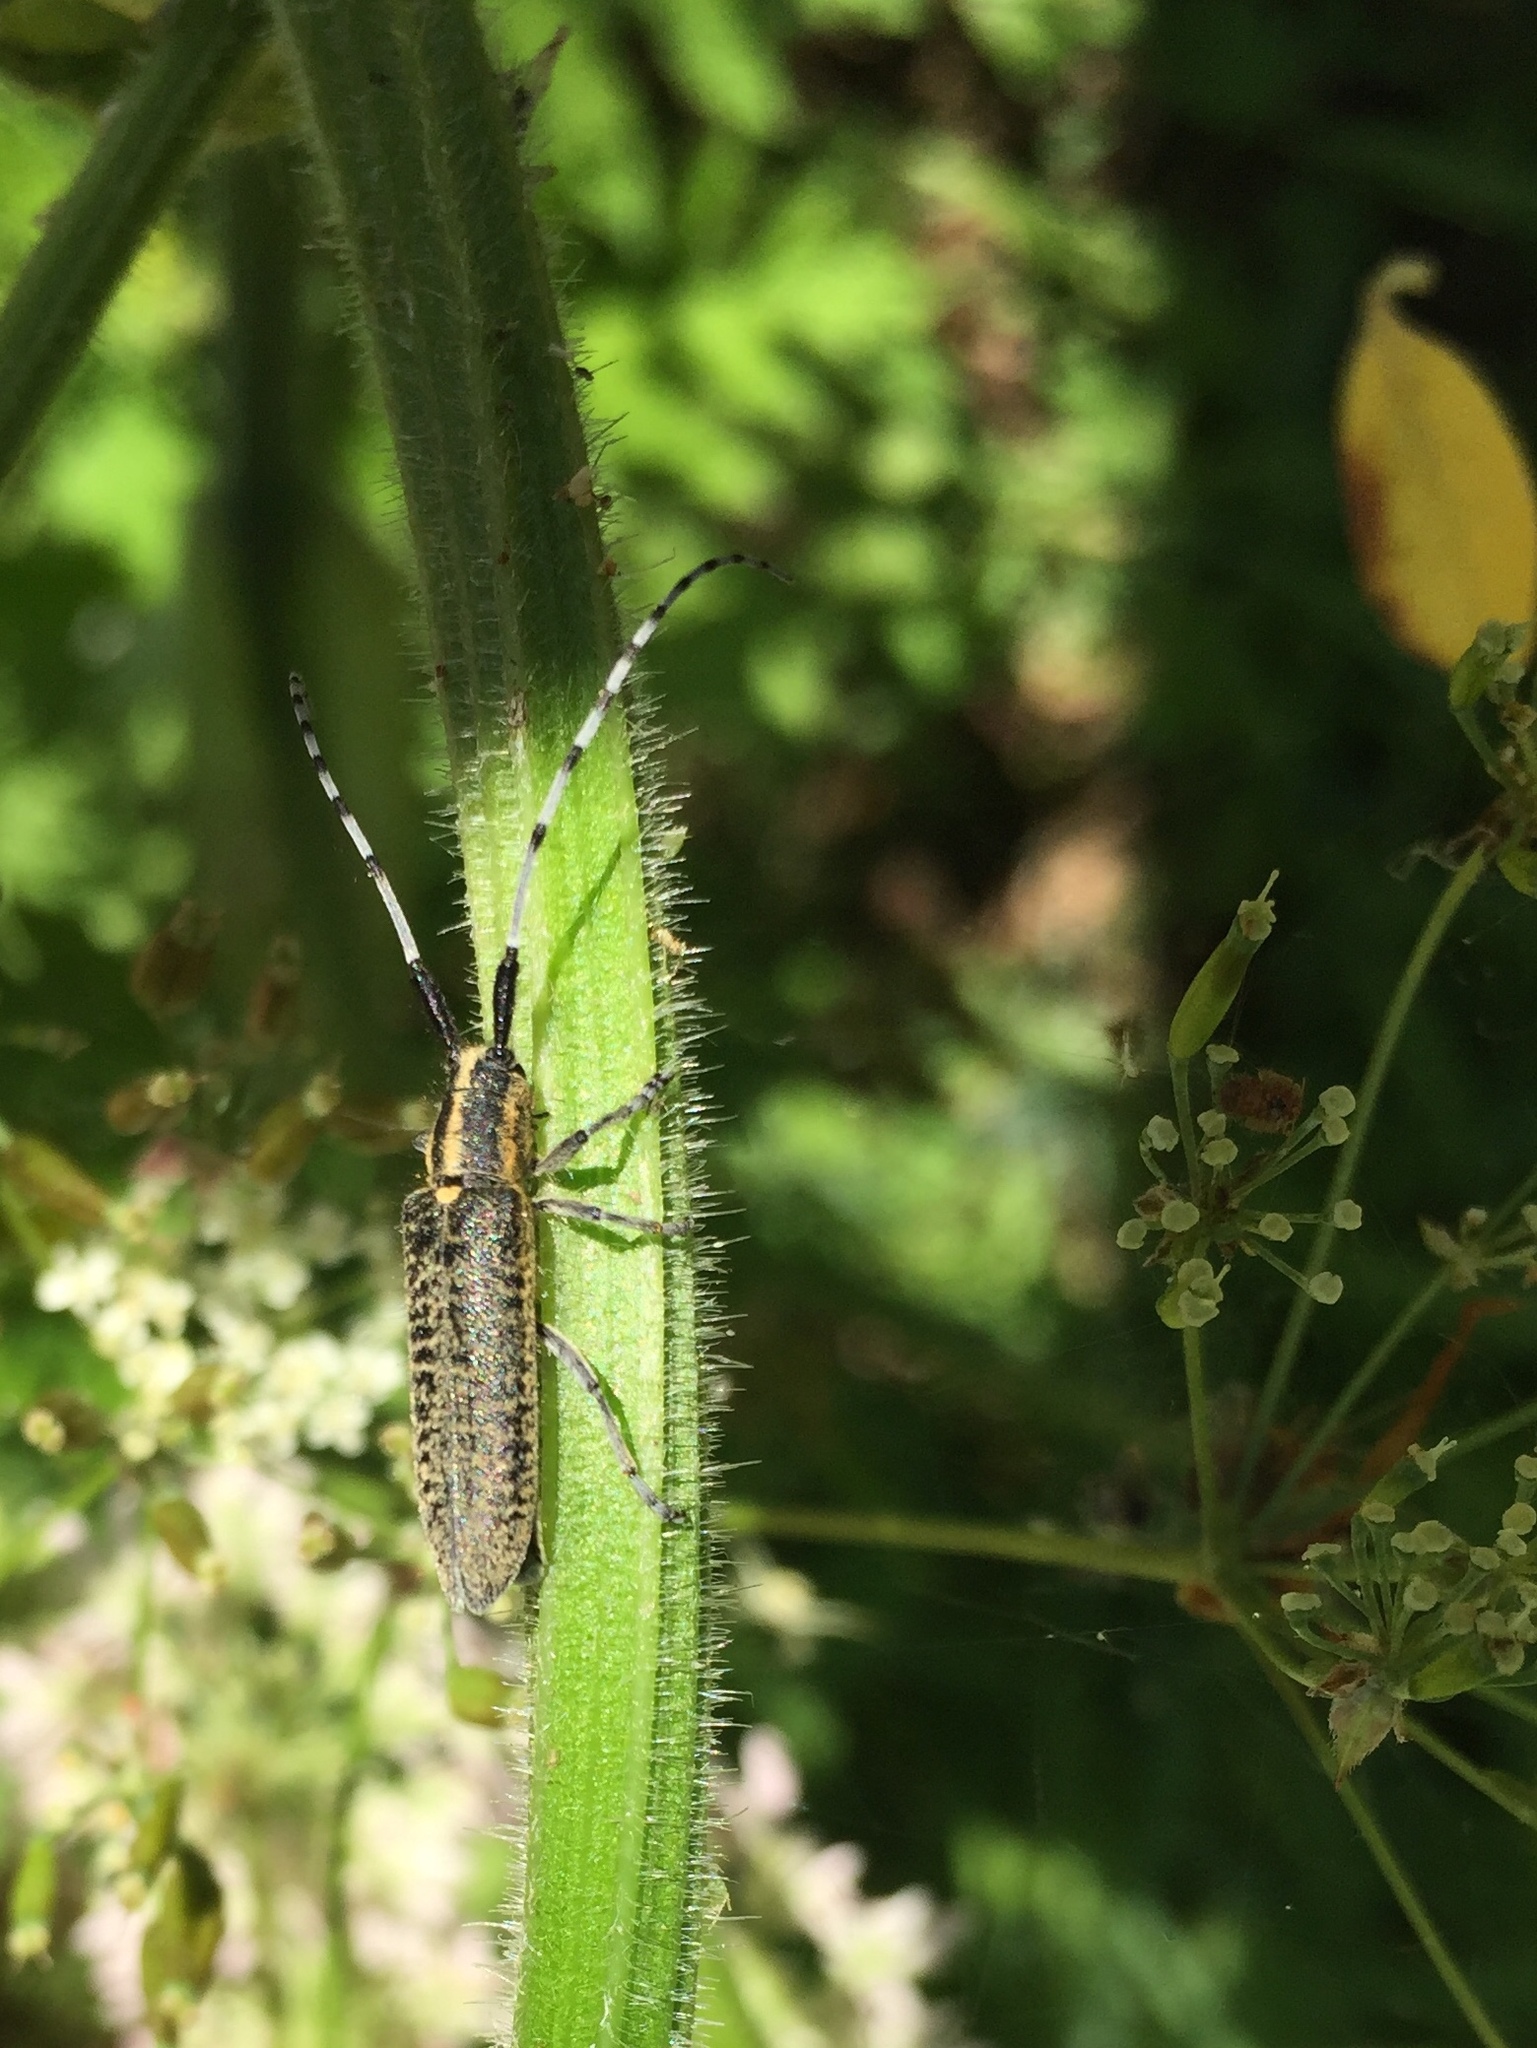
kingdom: Animalia
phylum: Arthropoda
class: Insecta
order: Coleoptera
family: Cerambycidae
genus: Agapanthia
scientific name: Agapanthia villosoviridescens
